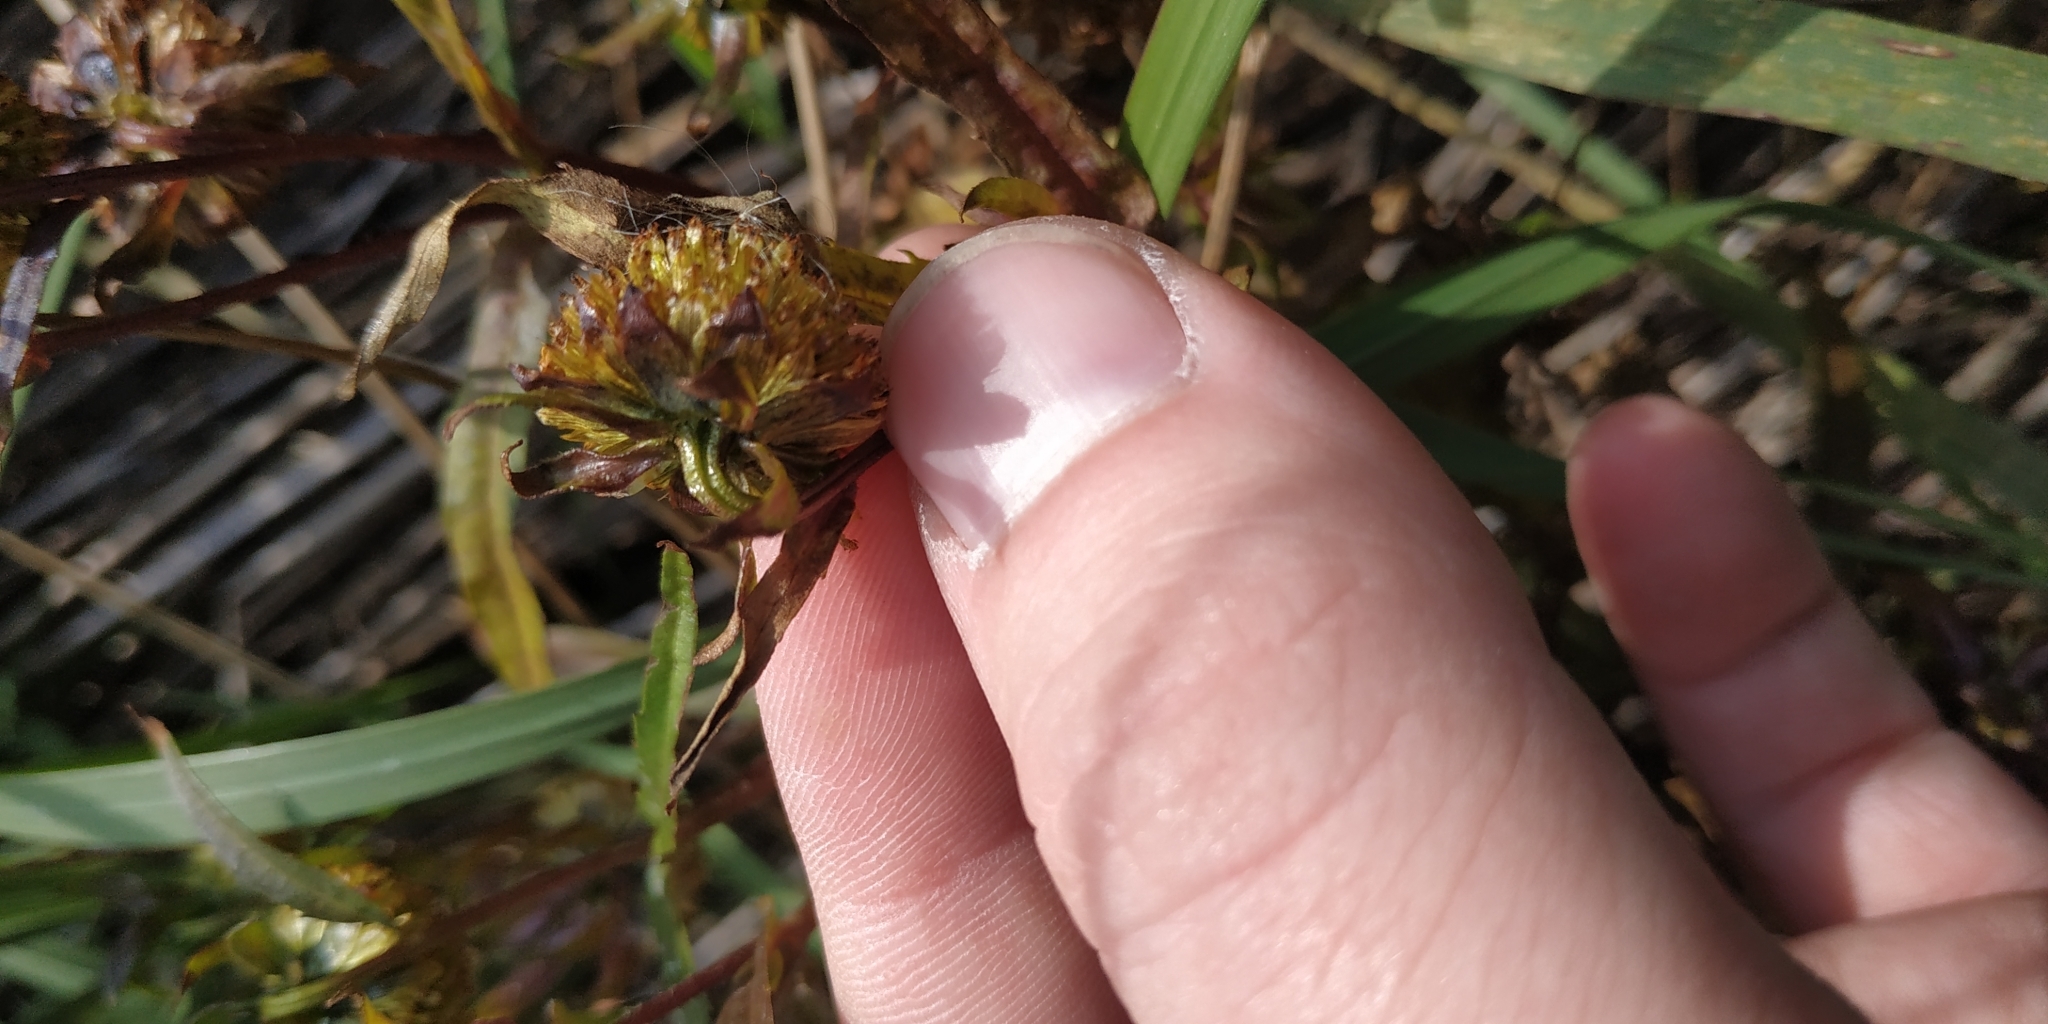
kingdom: Plantae
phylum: Tracheophyta
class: Magnoliopsida
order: Asterales
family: Asteraceae
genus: Bidens
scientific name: Bidens cernua
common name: Nodding bur-marigold
